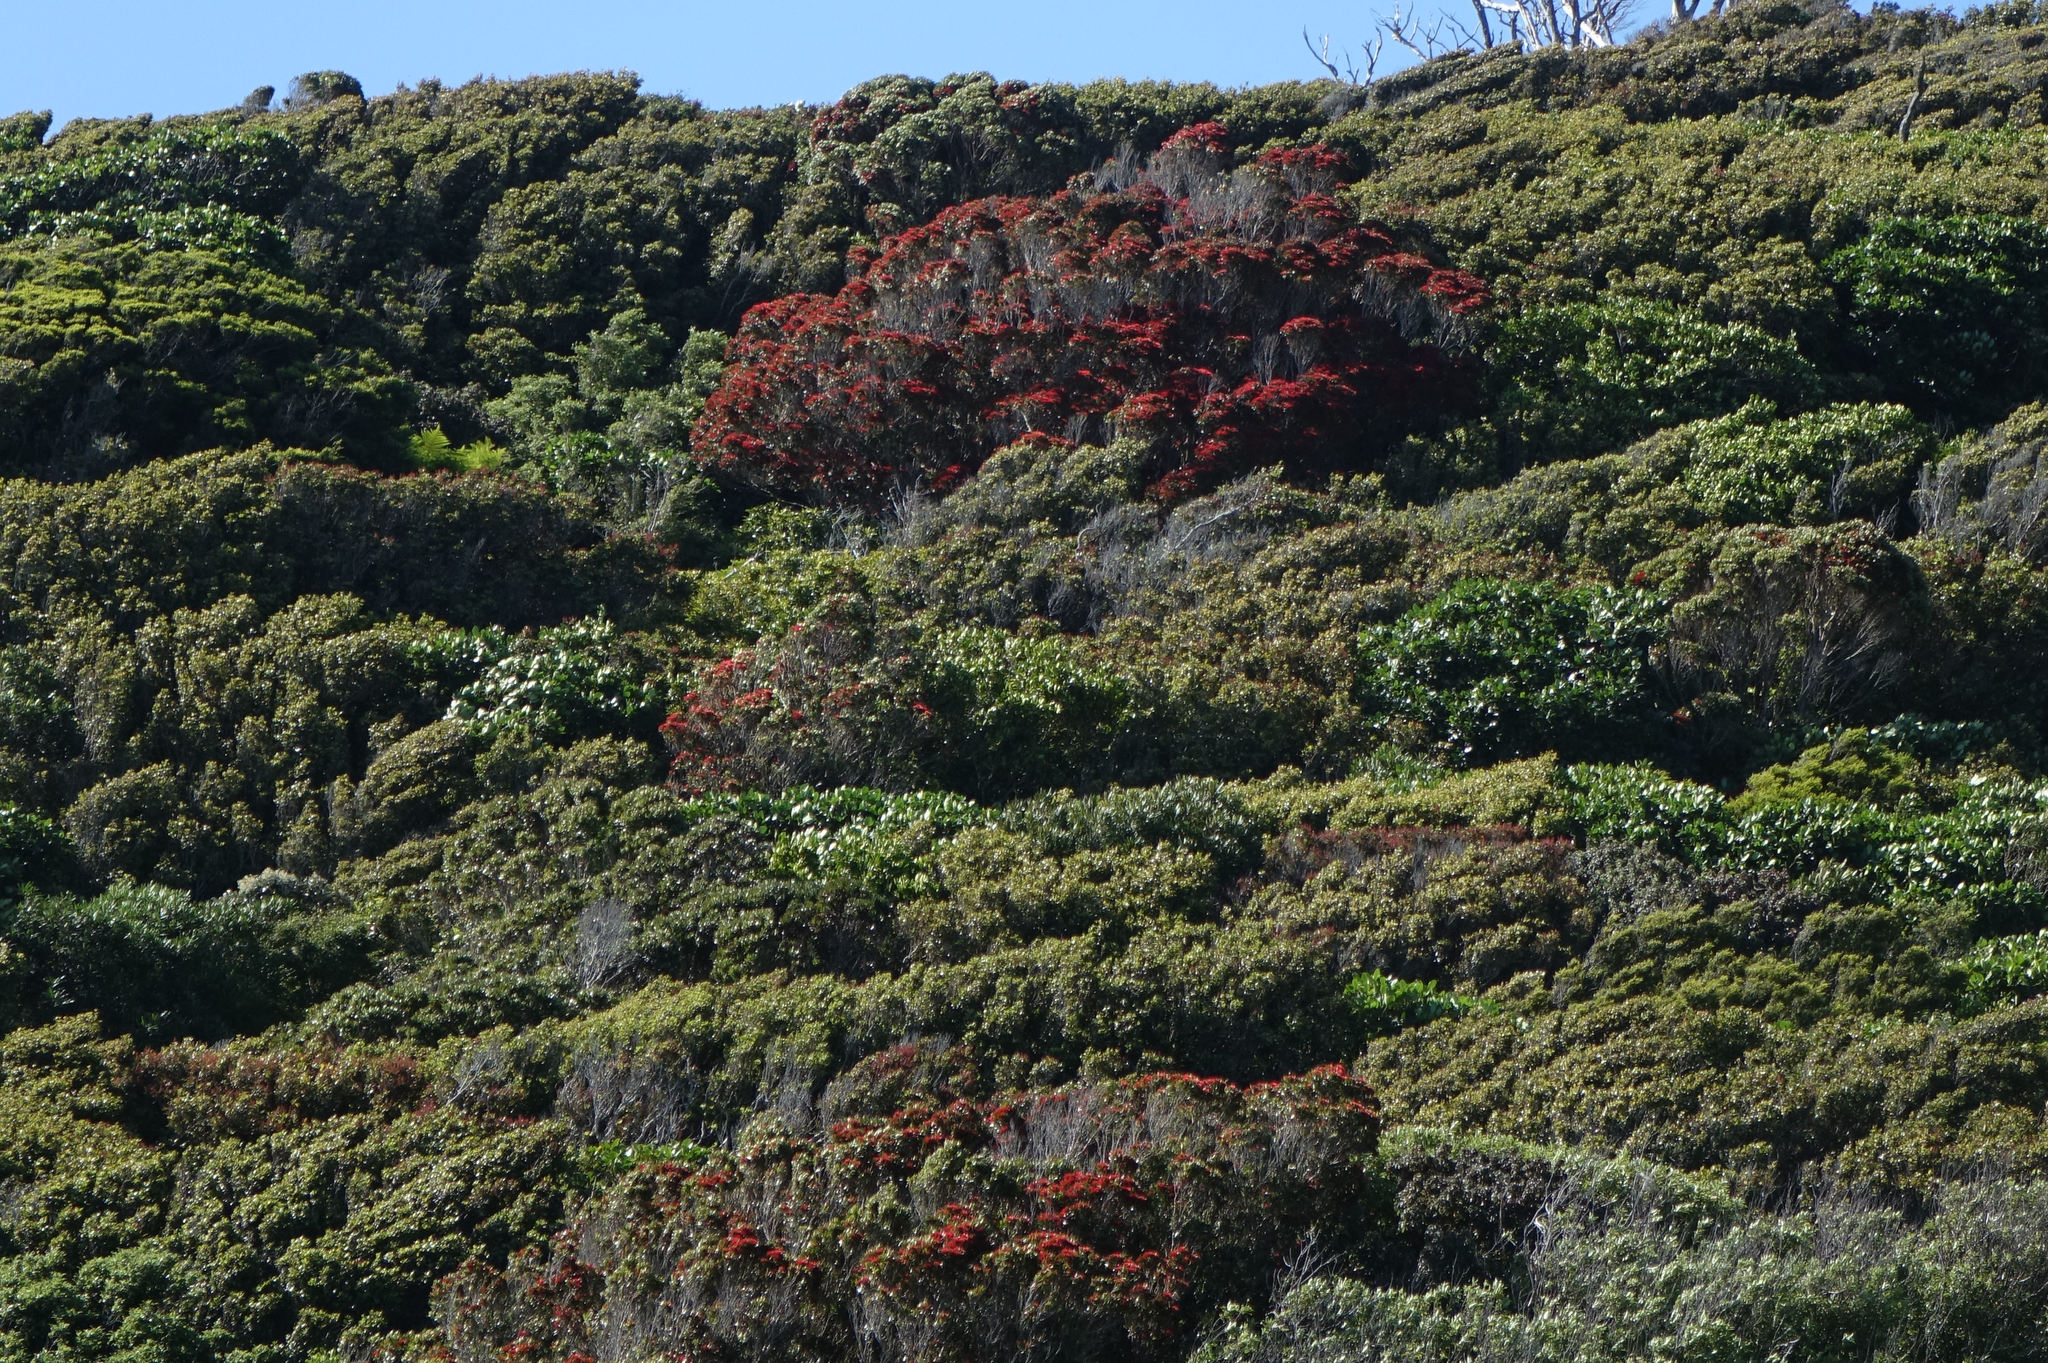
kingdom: Plantae
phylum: Tracheophyta
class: Magnoliopsida
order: Myrtales
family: Myrtaceae
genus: Metrosideros
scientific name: Metrosideros umbellata
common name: Southern rata
